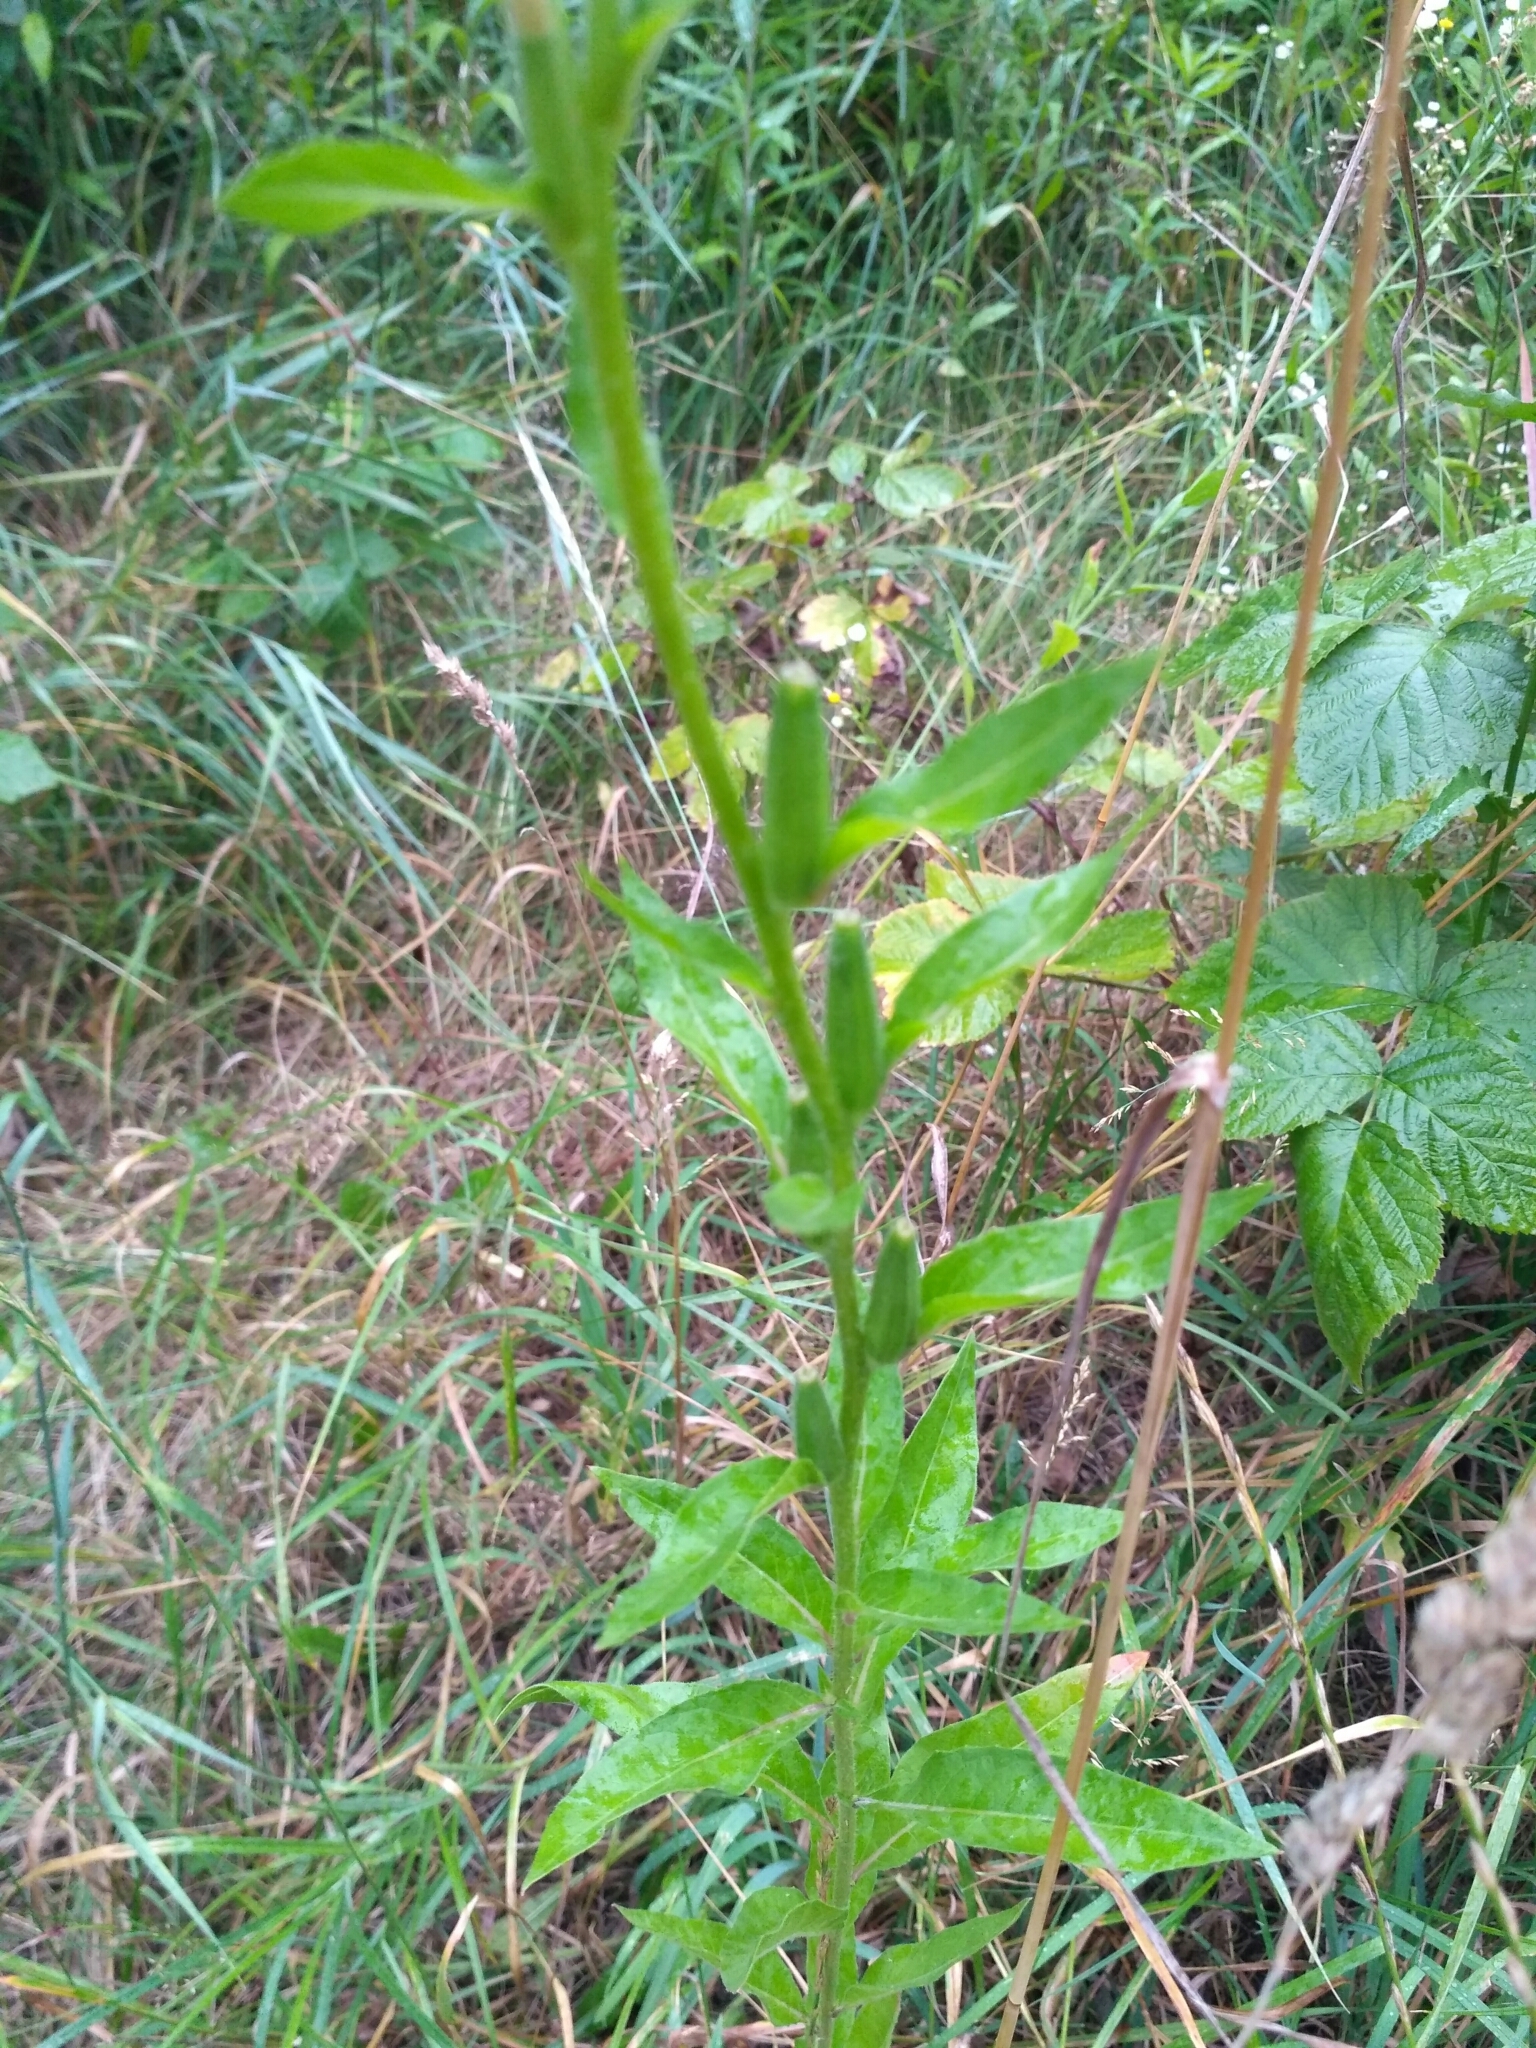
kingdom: Plantae
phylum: Tracheophyta
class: Magnoliopsida
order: Myrtales
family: Onagraceae
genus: Oenothera
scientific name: Oenothera biennis
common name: Common evening-primrose
